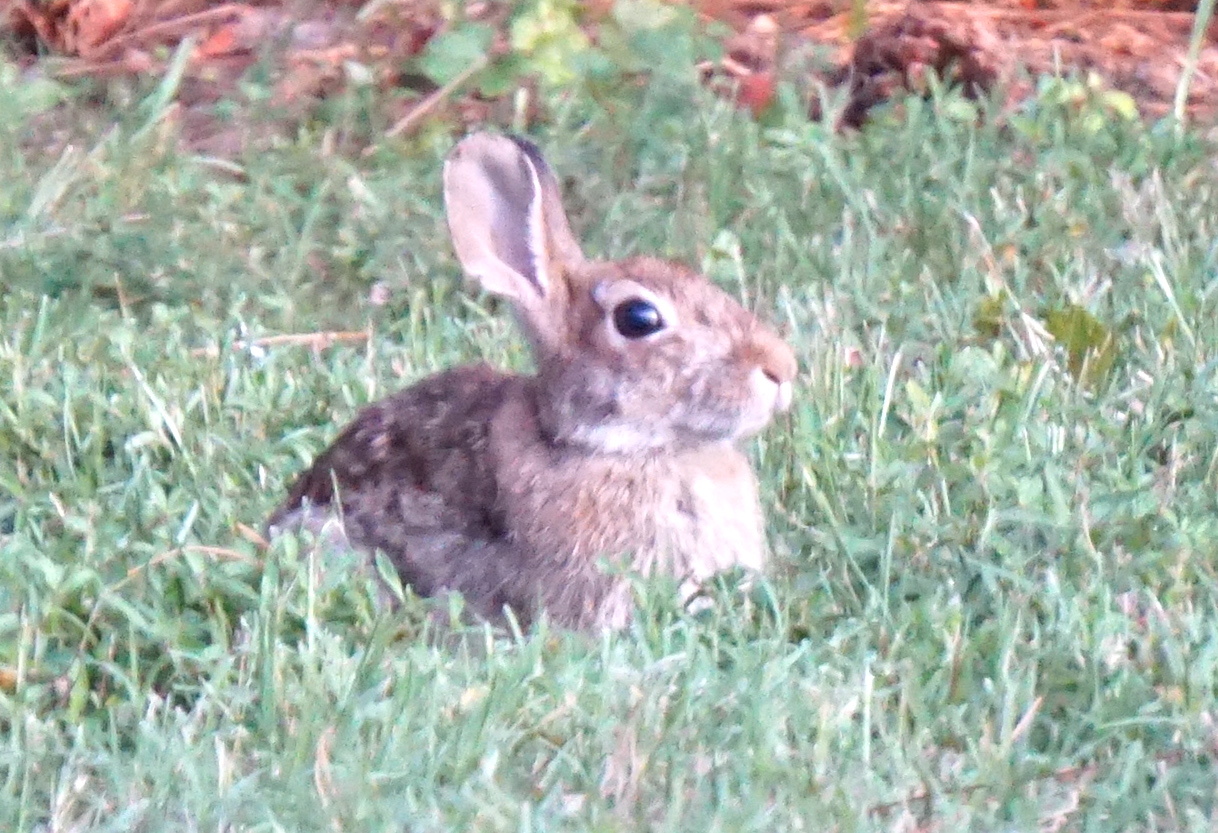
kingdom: Animalia
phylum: Chordata
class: Mammalia
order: Lagomorpha
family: Leporidae
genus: Sylvilagus
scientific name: Sylvilagus floridanus
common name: Eastern cottontail
